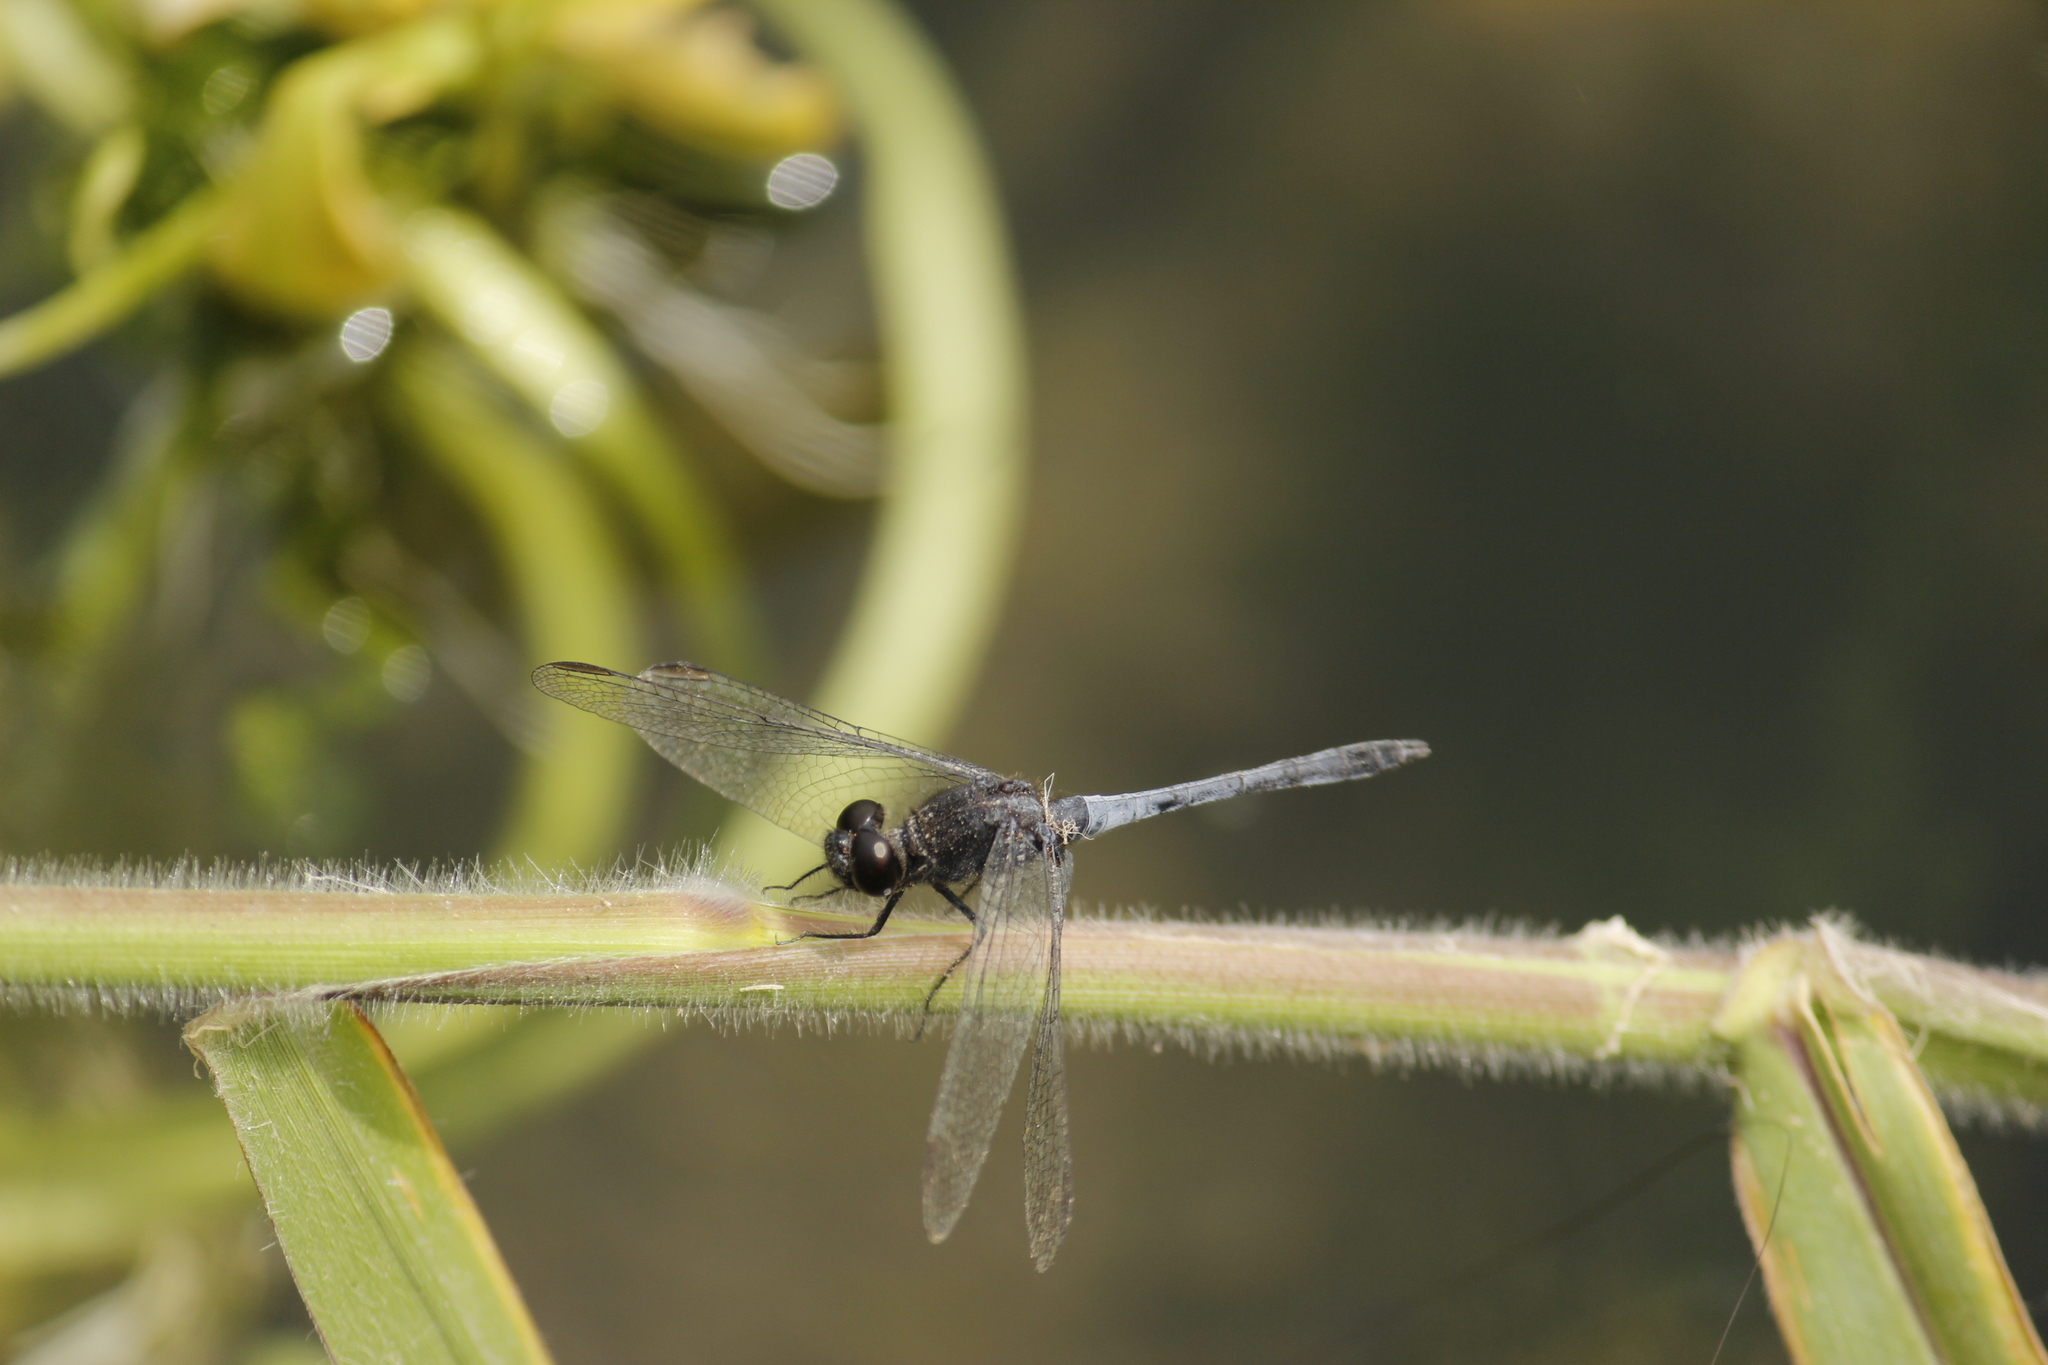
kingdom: Animalia
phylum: Arthropoda
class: Insecta
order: Odonata
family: Libellulidae
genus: Erythrodiplax
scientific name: Erythrodiplax cleopatra
